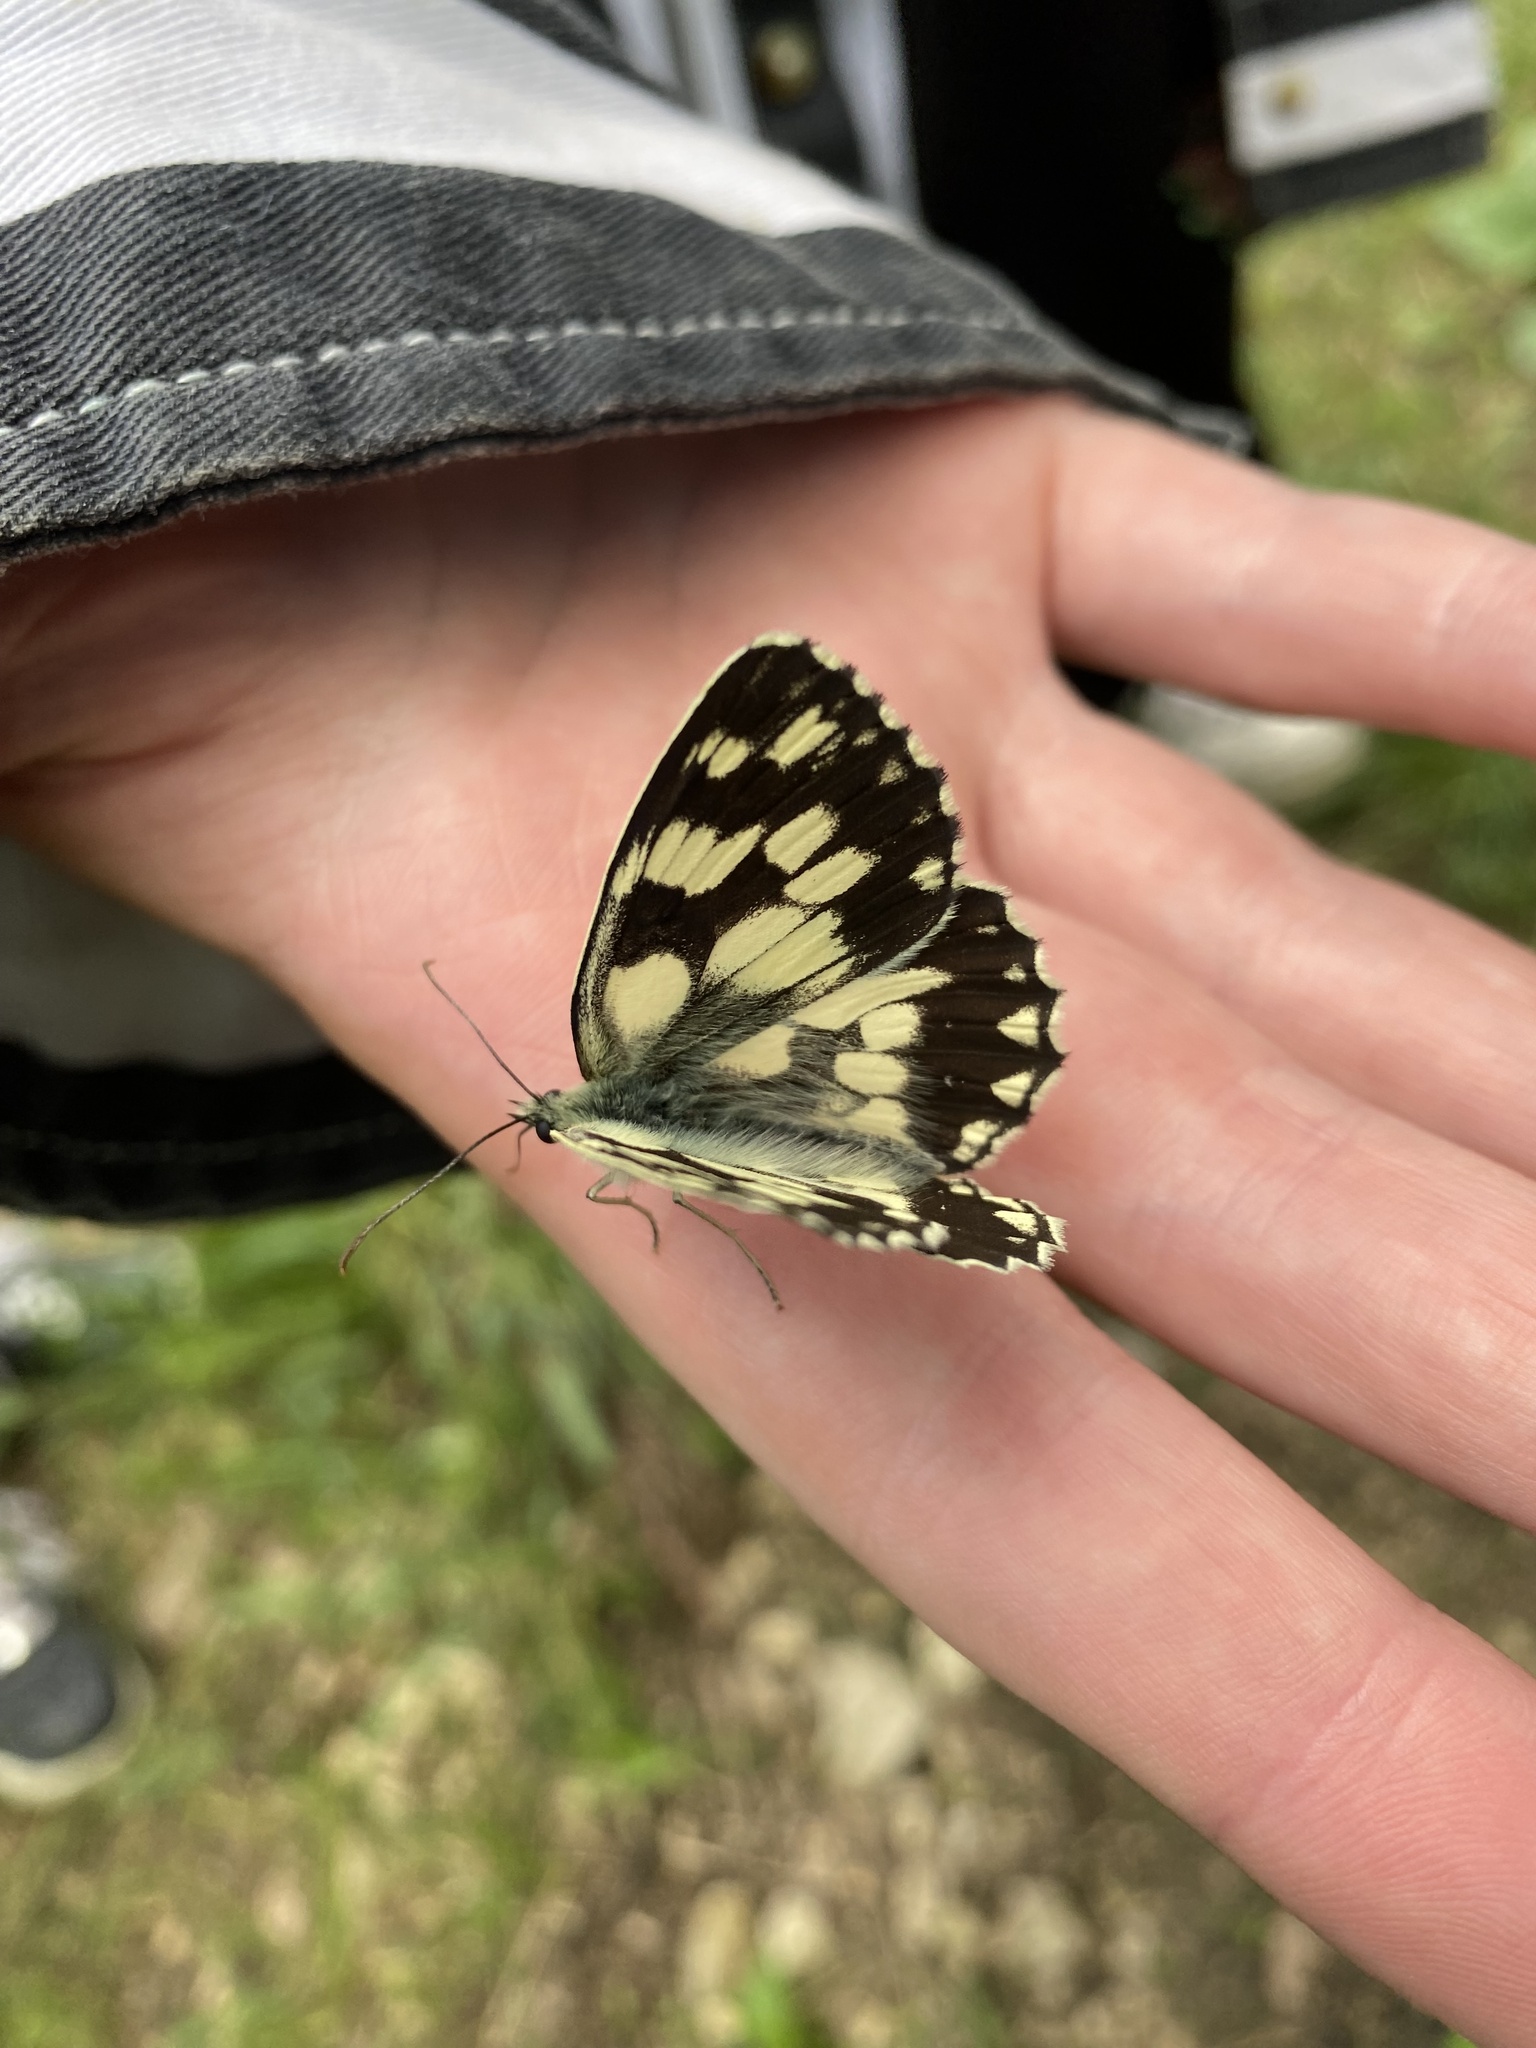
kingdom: Animalia
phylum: Arthropoda
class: Insecta
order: Lepidoptera
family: Nymphalidae
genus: Melanargia
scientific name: Melanargia galathea
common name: Marbled white
